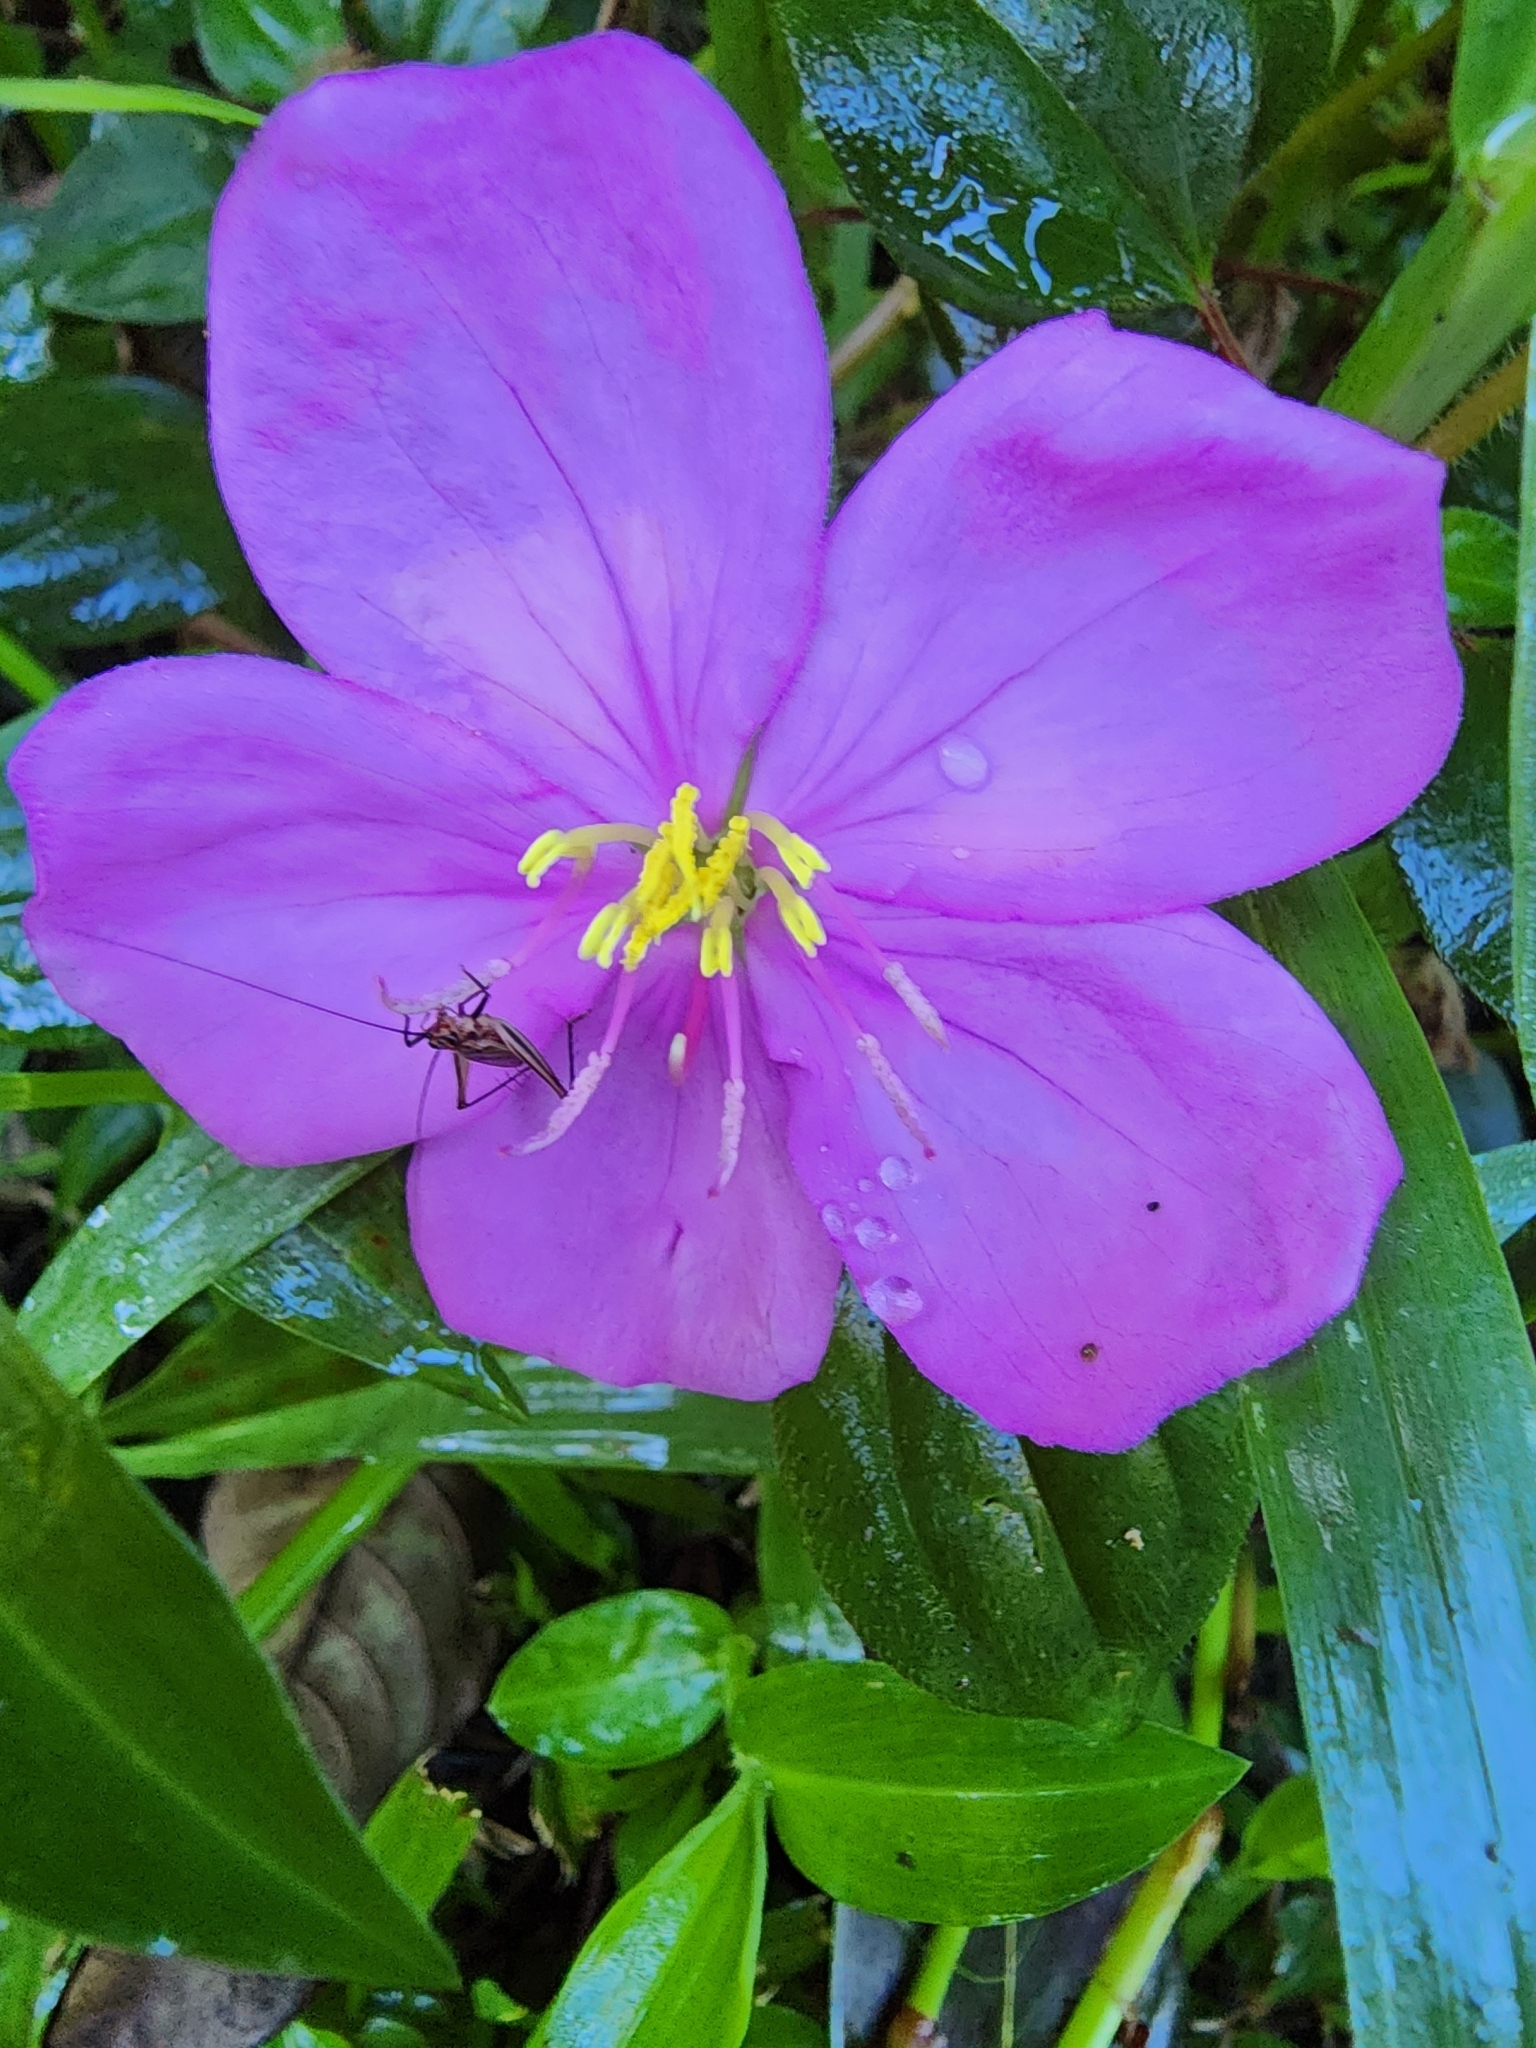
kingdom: Plantae
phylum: Tracheophyta
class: Magnoliopsida
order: Myrtales
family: Melastomataceae
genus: Heterotis
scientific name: Heterotis rotundifolia
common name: Pinklady
